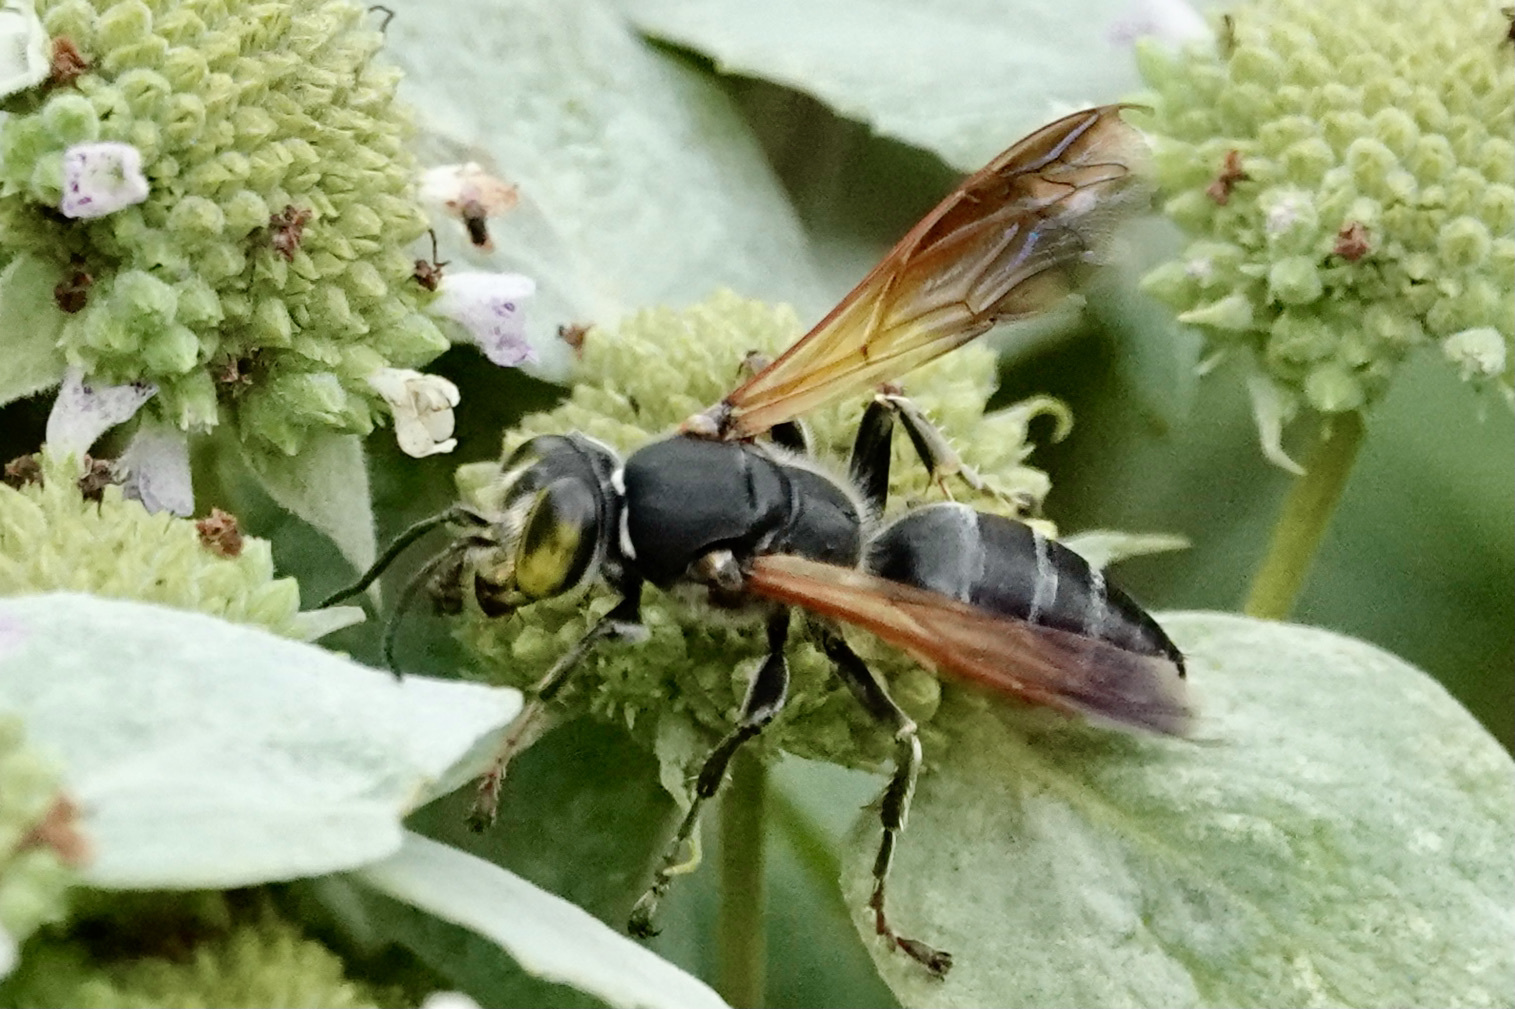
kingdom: Animalia
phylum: Arthropoda
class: Insecta
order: Hymenoptera
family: Crabronidae
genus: Tachytes
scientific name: Tachytes guatemalensis
